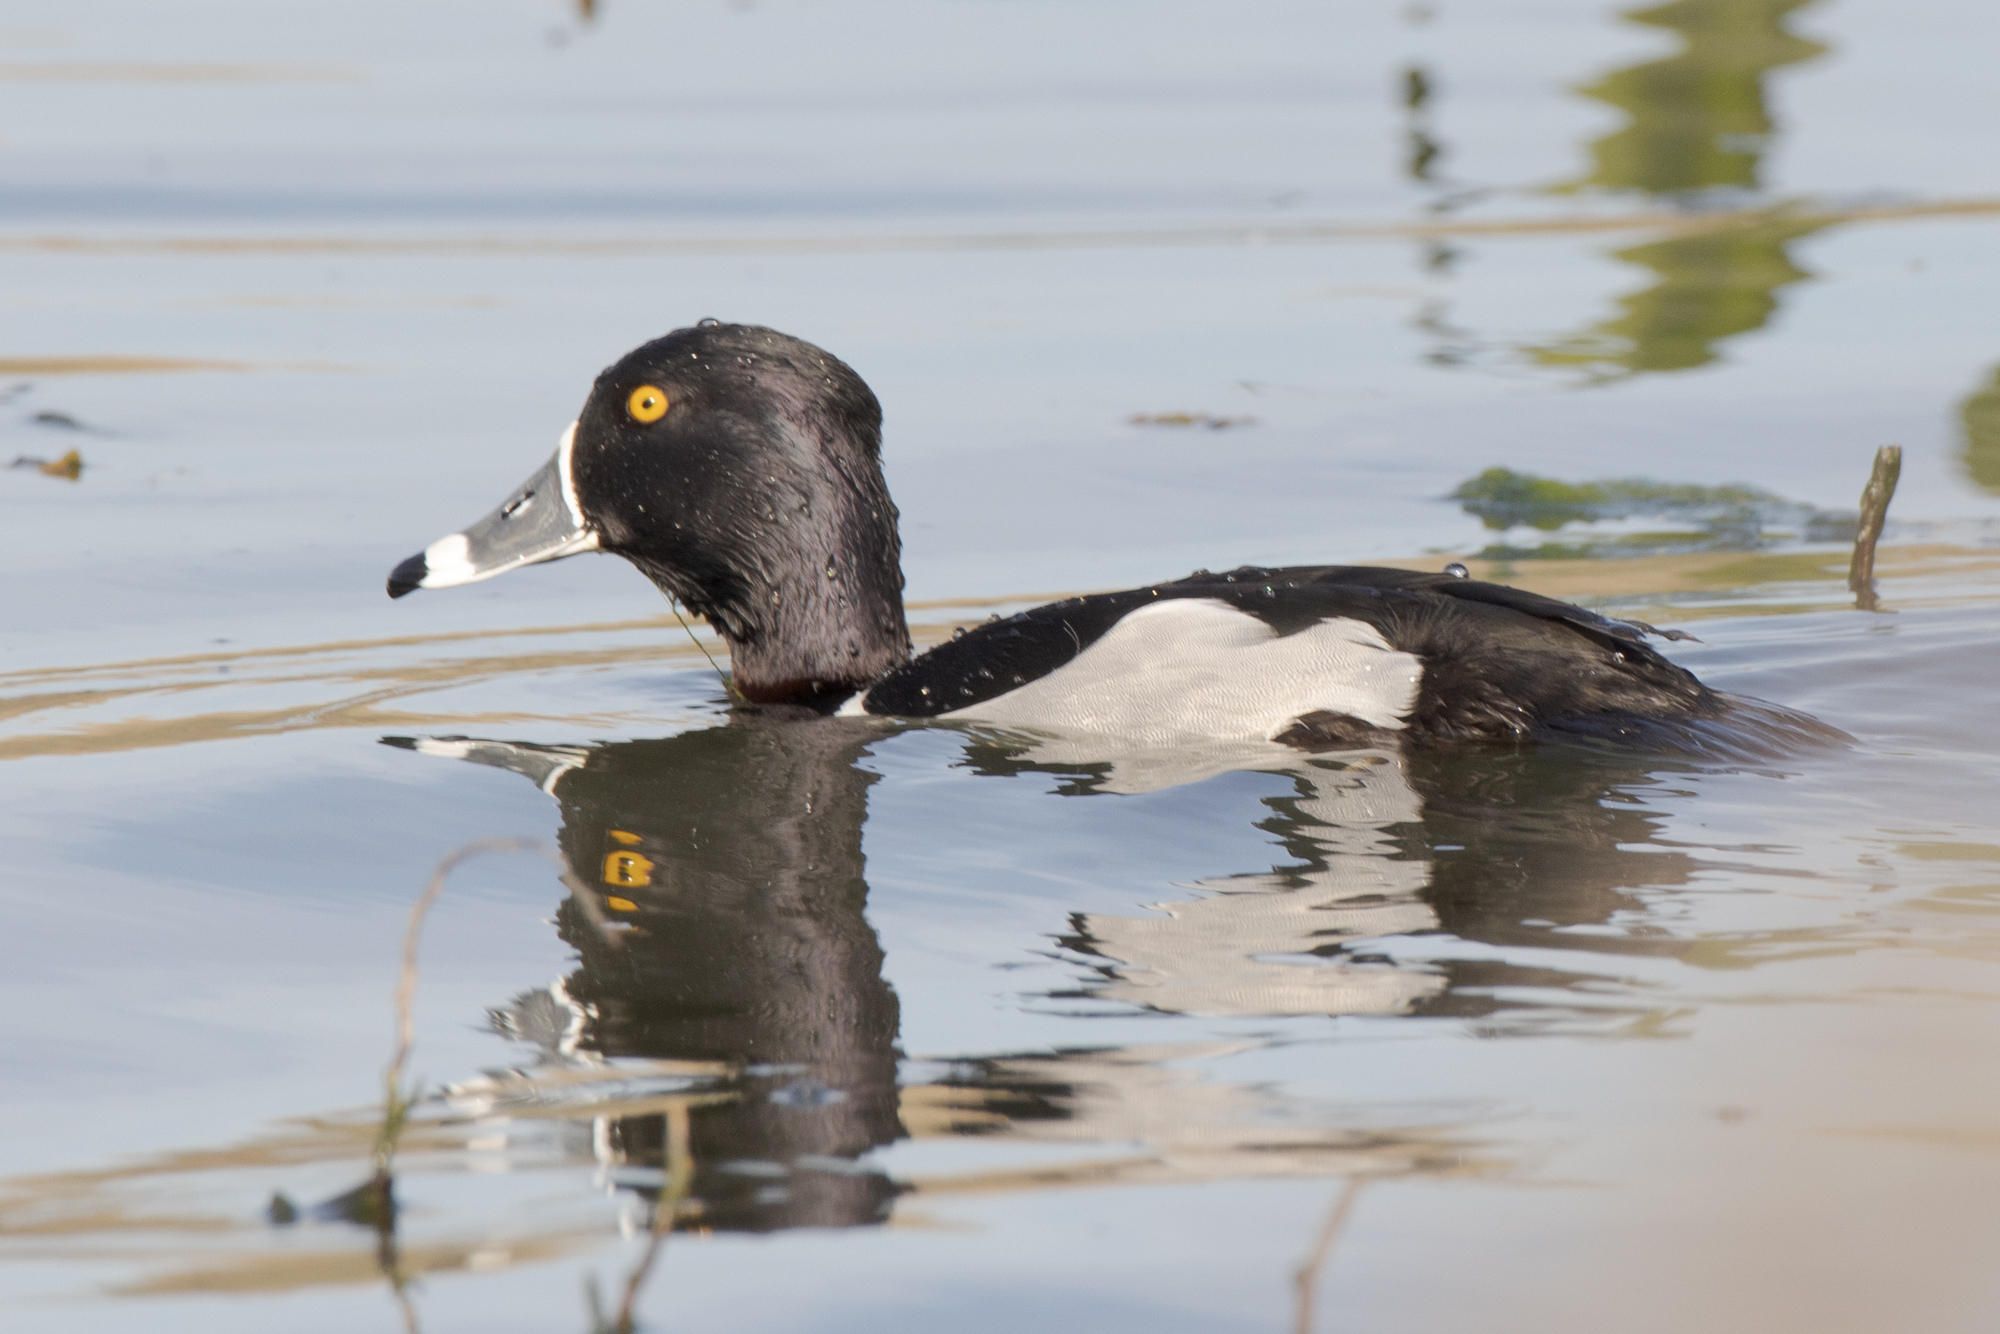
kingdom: Animalia
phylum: Chordata
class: Aves
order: Anseriformes
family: Anatidae
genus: Aythya
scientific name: Aythya collaris
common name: Ring-necked duck
